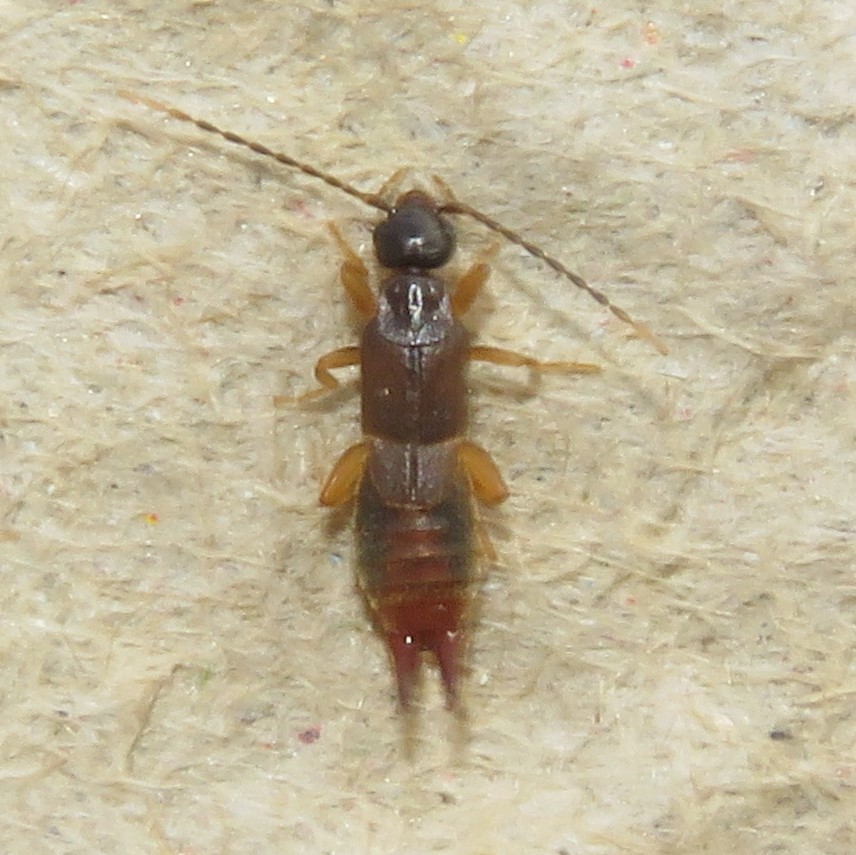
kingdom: Animalia
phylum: Arthropoda
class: Insecta
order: Dermaptera
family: Spongiphoridae
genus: Labia
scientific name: Labia minor
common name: Lesser earwig
